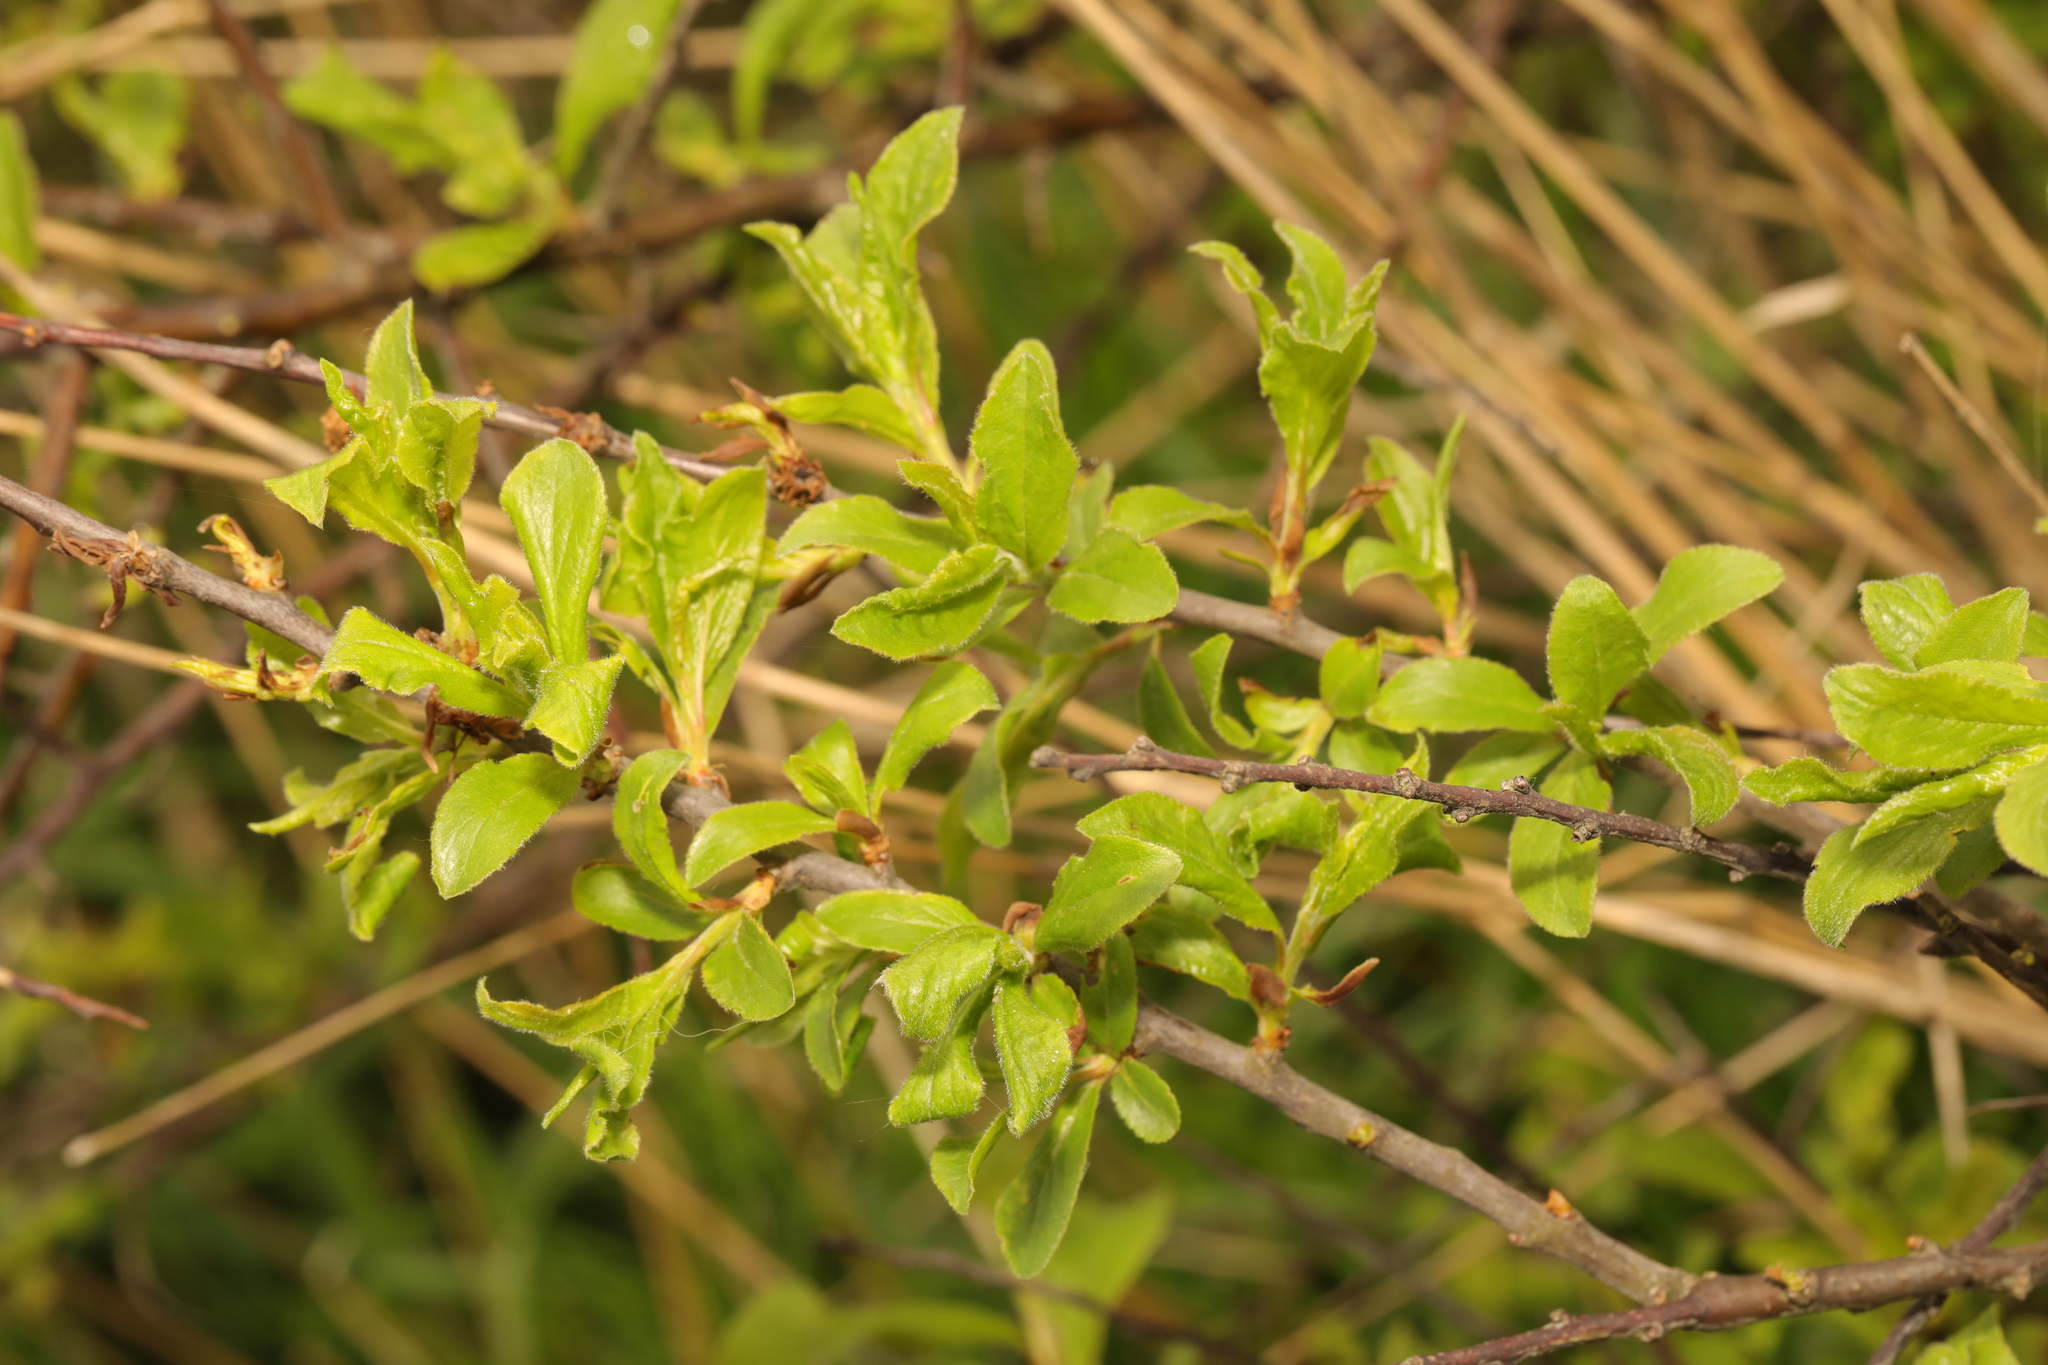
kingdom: Plantae
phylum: Tracheophyta
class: Magnoliopsida
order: Rosales
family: Rosaceae
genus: Prunus
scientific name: Prunus spinosa
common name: Blackthorn
